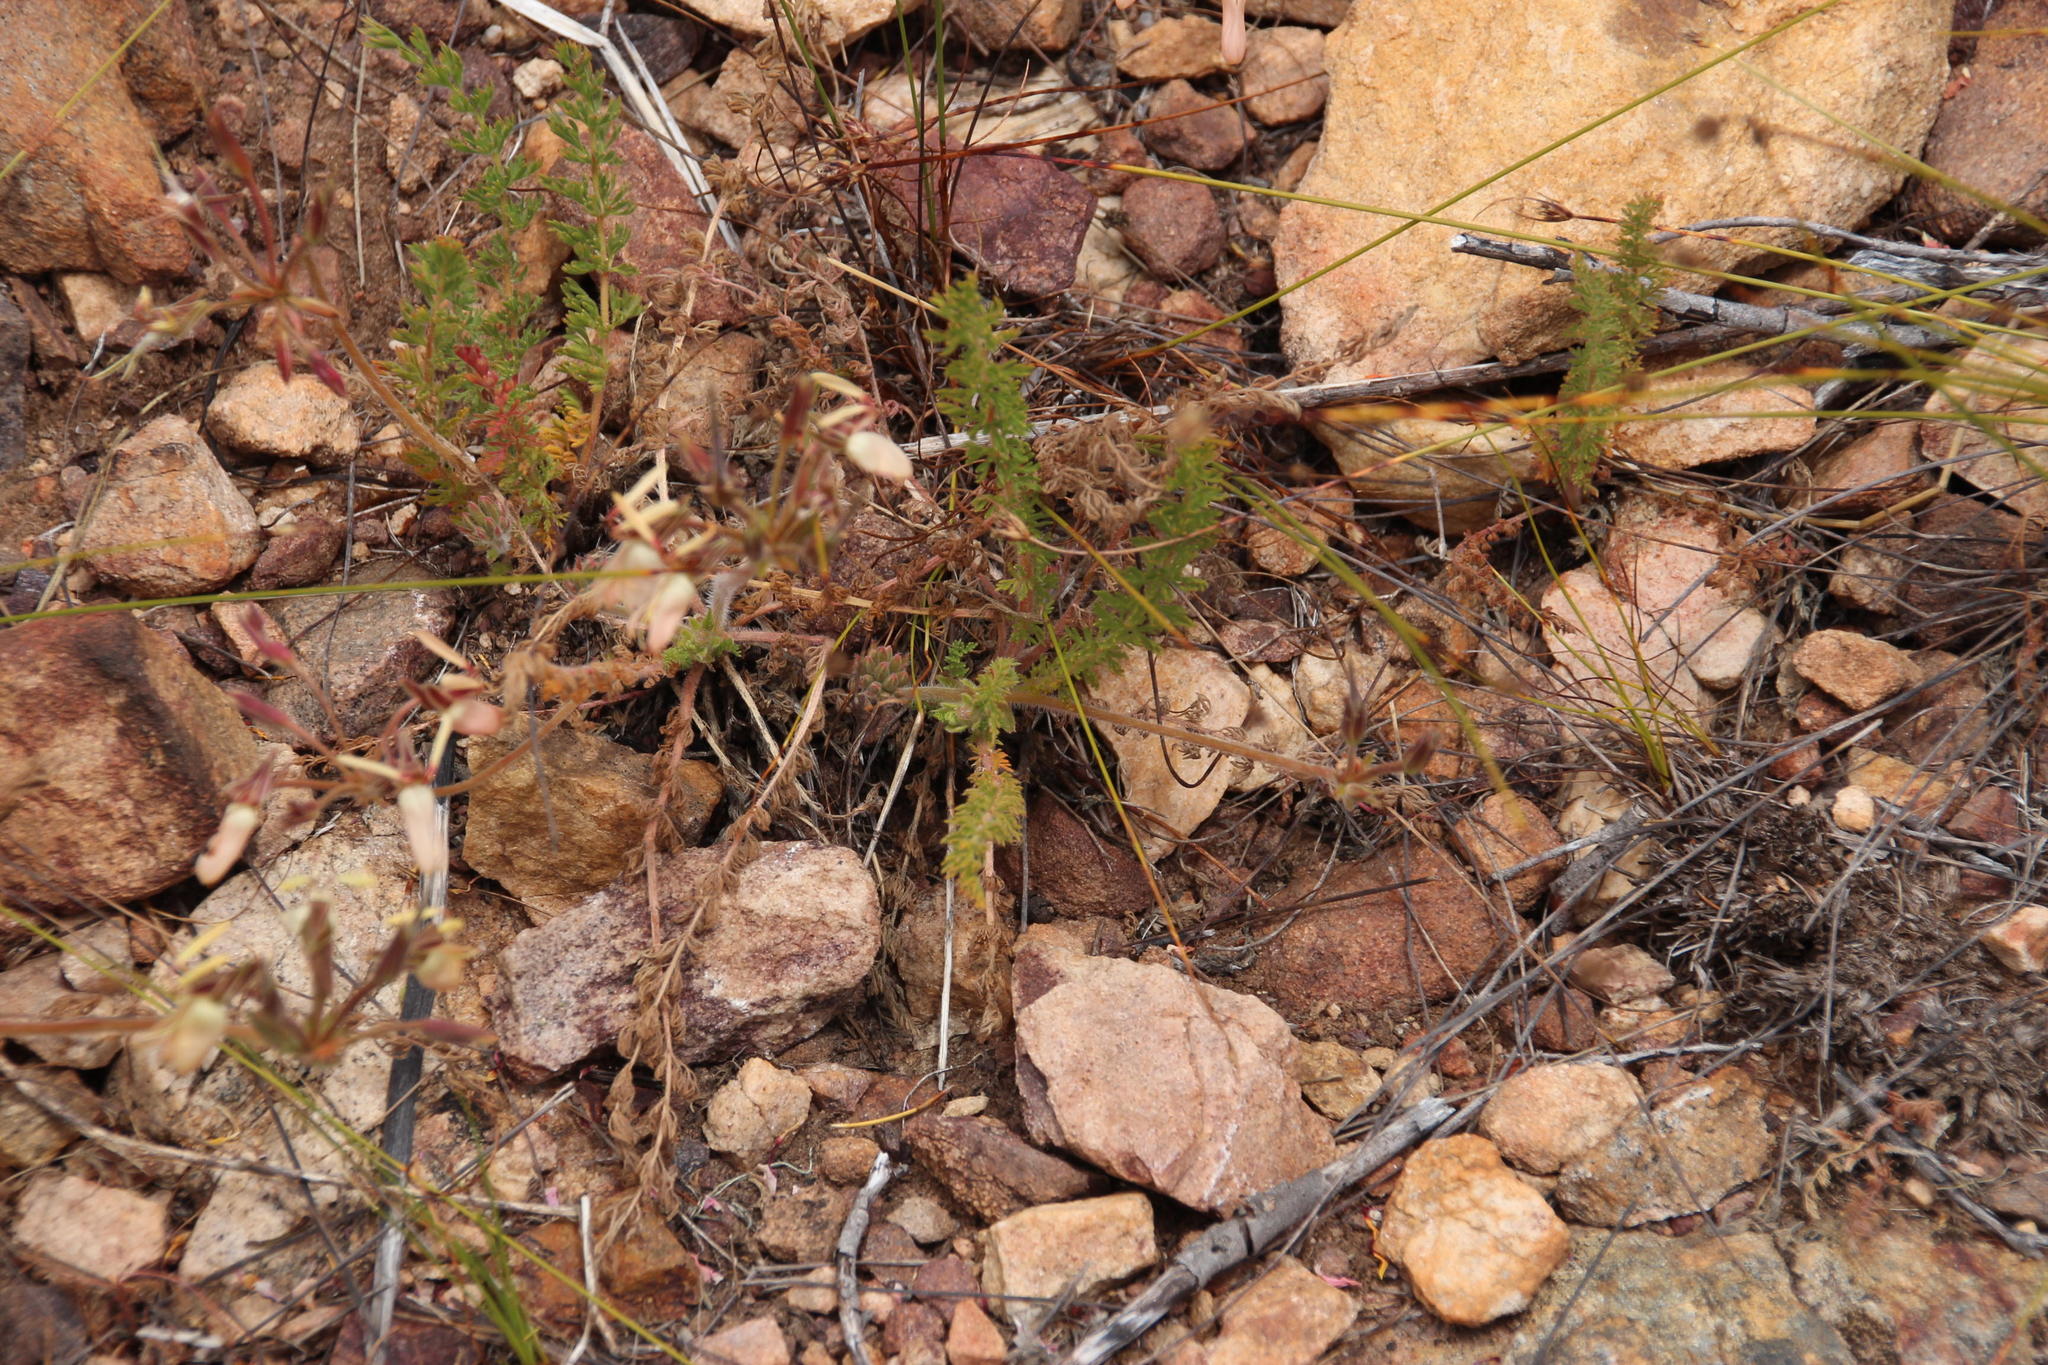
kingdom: Plantae
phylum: Tracheophyta
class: Magnoliopsida
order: Geraniales
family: Geraniaceae
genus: Pelargonium
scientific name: Pelargonium rapaceum
